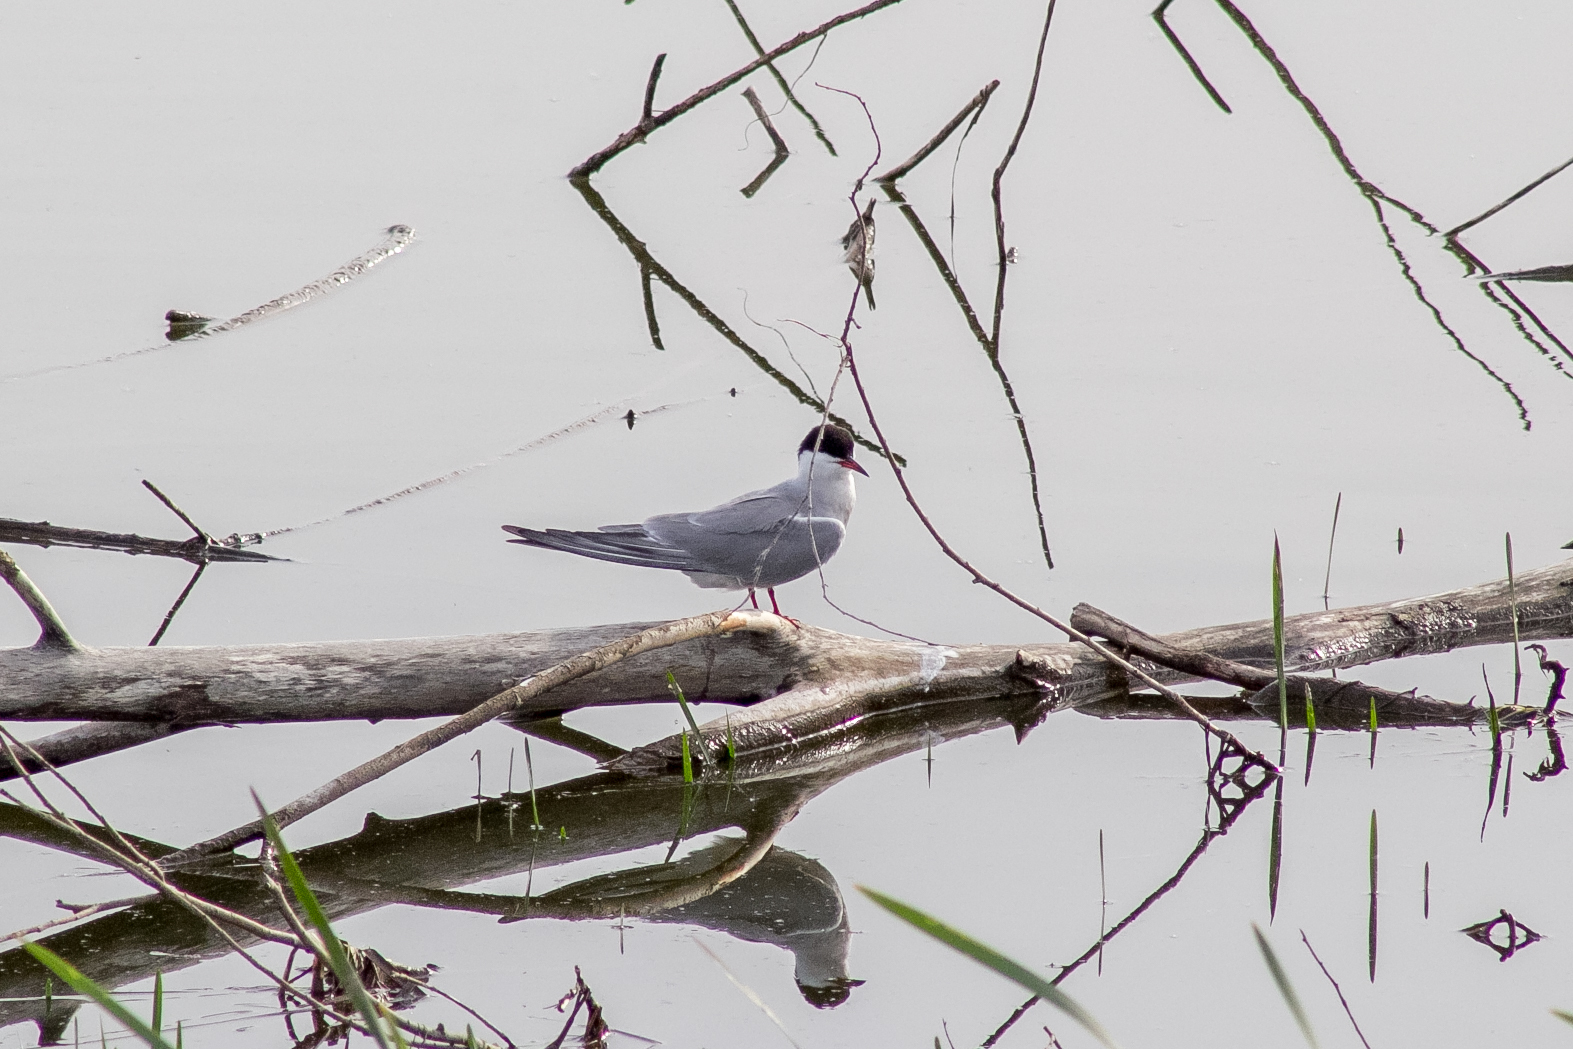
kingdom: Animalia
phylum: Chordata
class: Aves
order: Charadriiformes
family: Laridae
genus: Sterna
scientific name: Sterna hirundo
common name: Common tern
